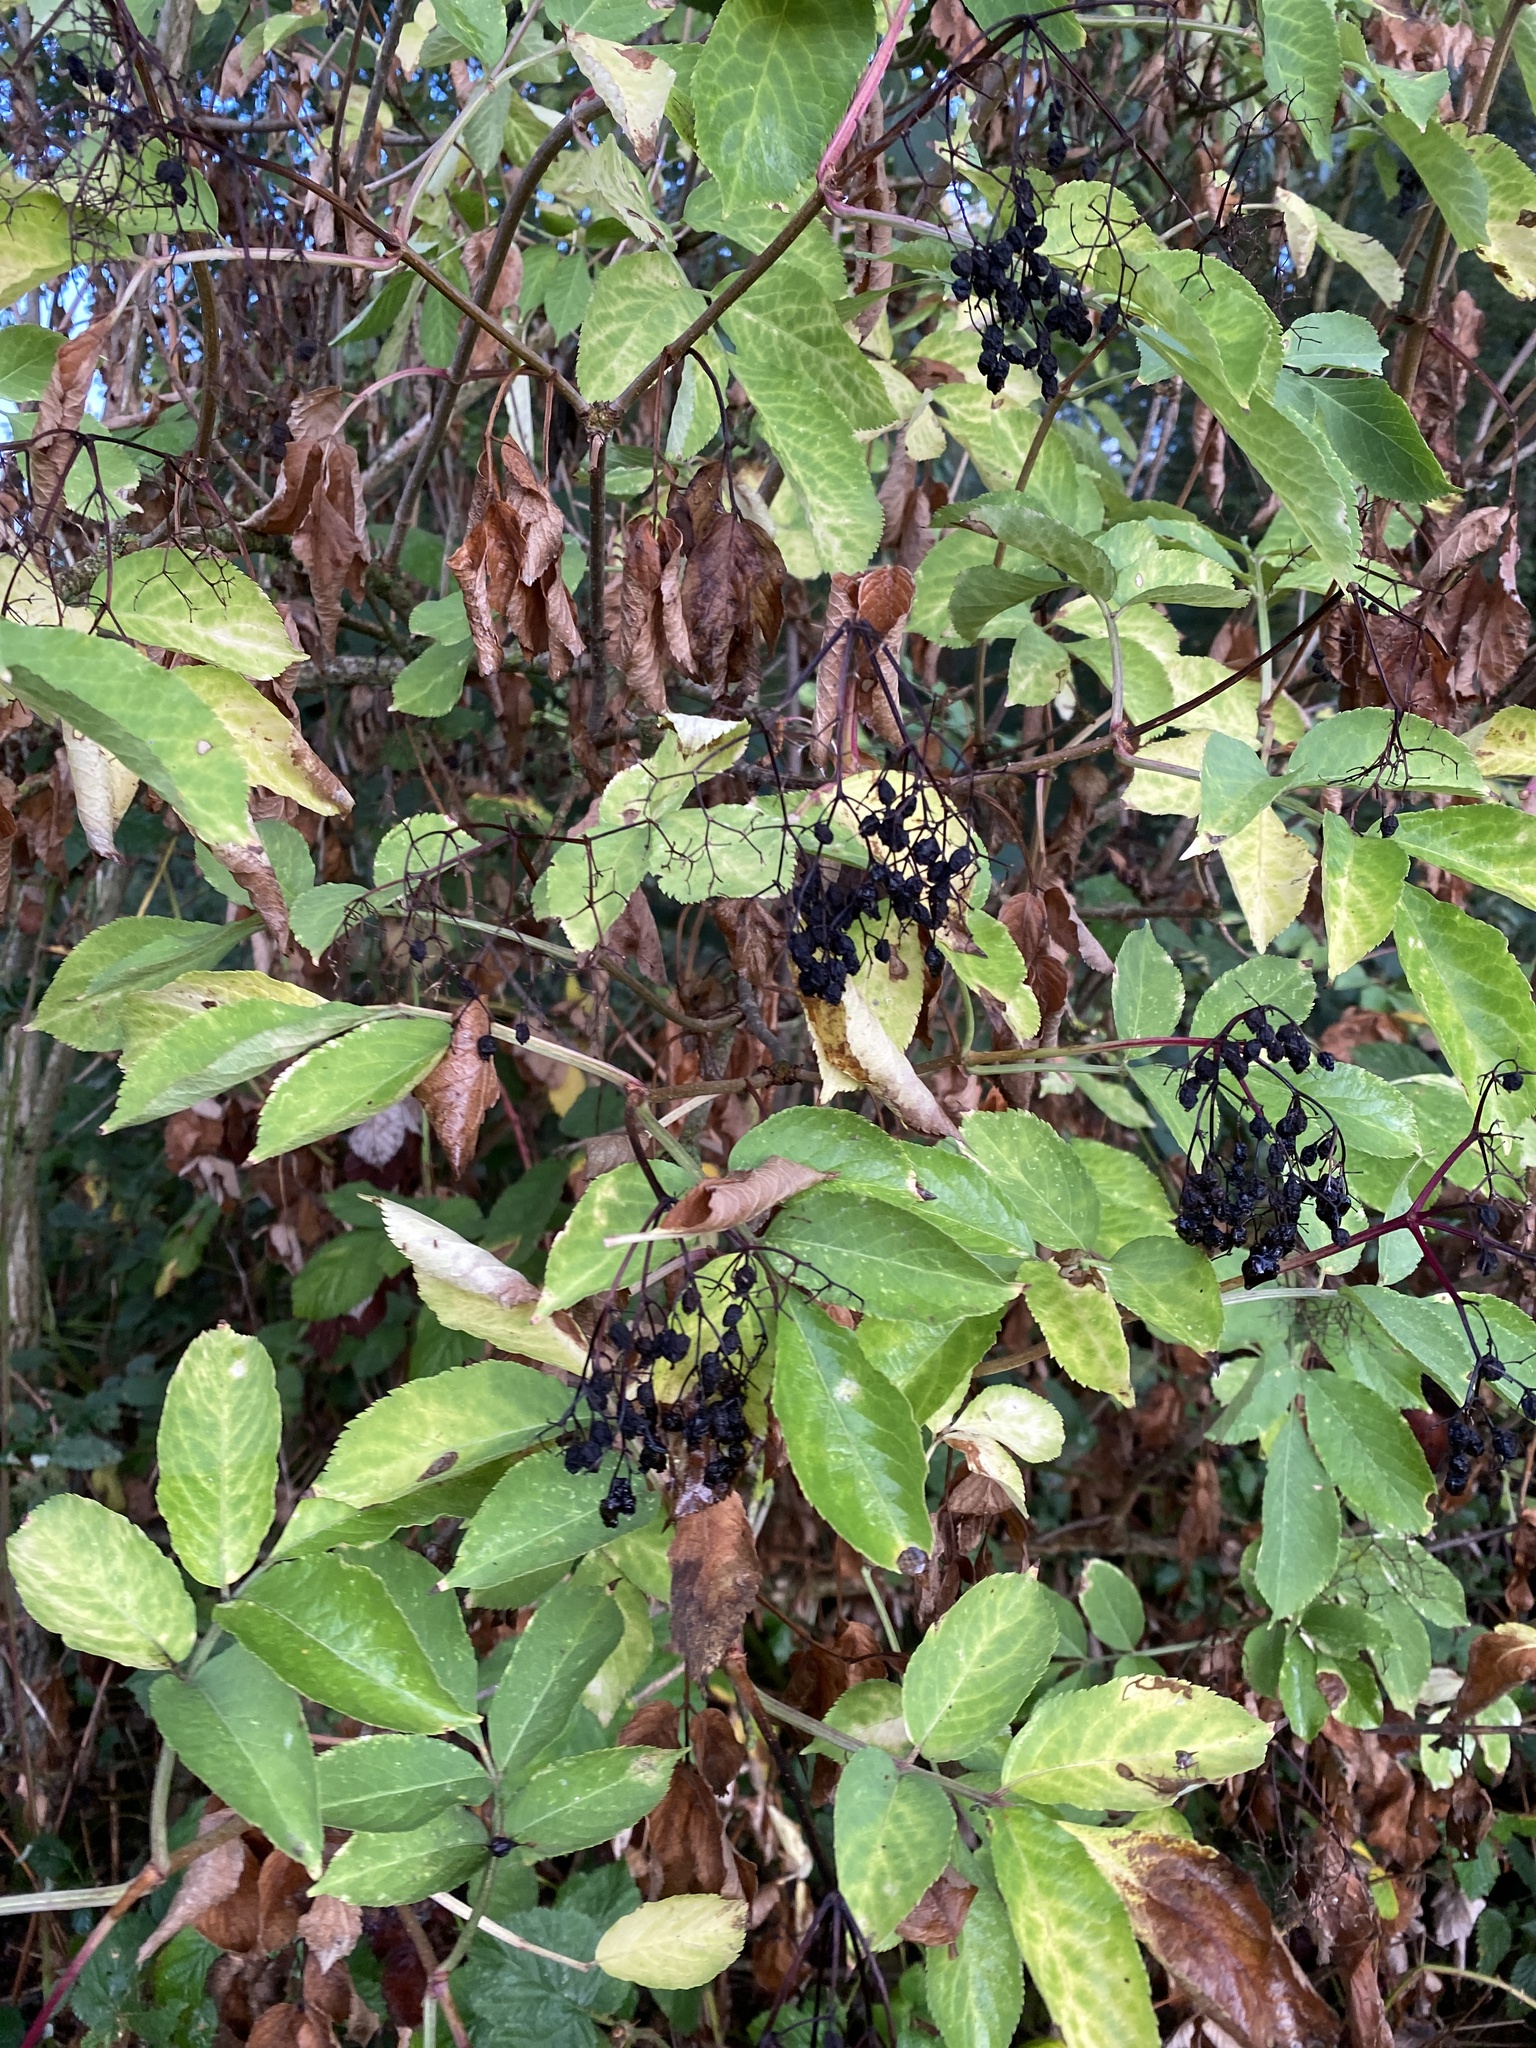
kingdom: Plantae
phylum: Tracheophyta
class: Magnoliopsida
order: Dipsacales
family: Viburnaceae
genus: Sambucus
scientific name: Sambucus nigra
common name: Elder
